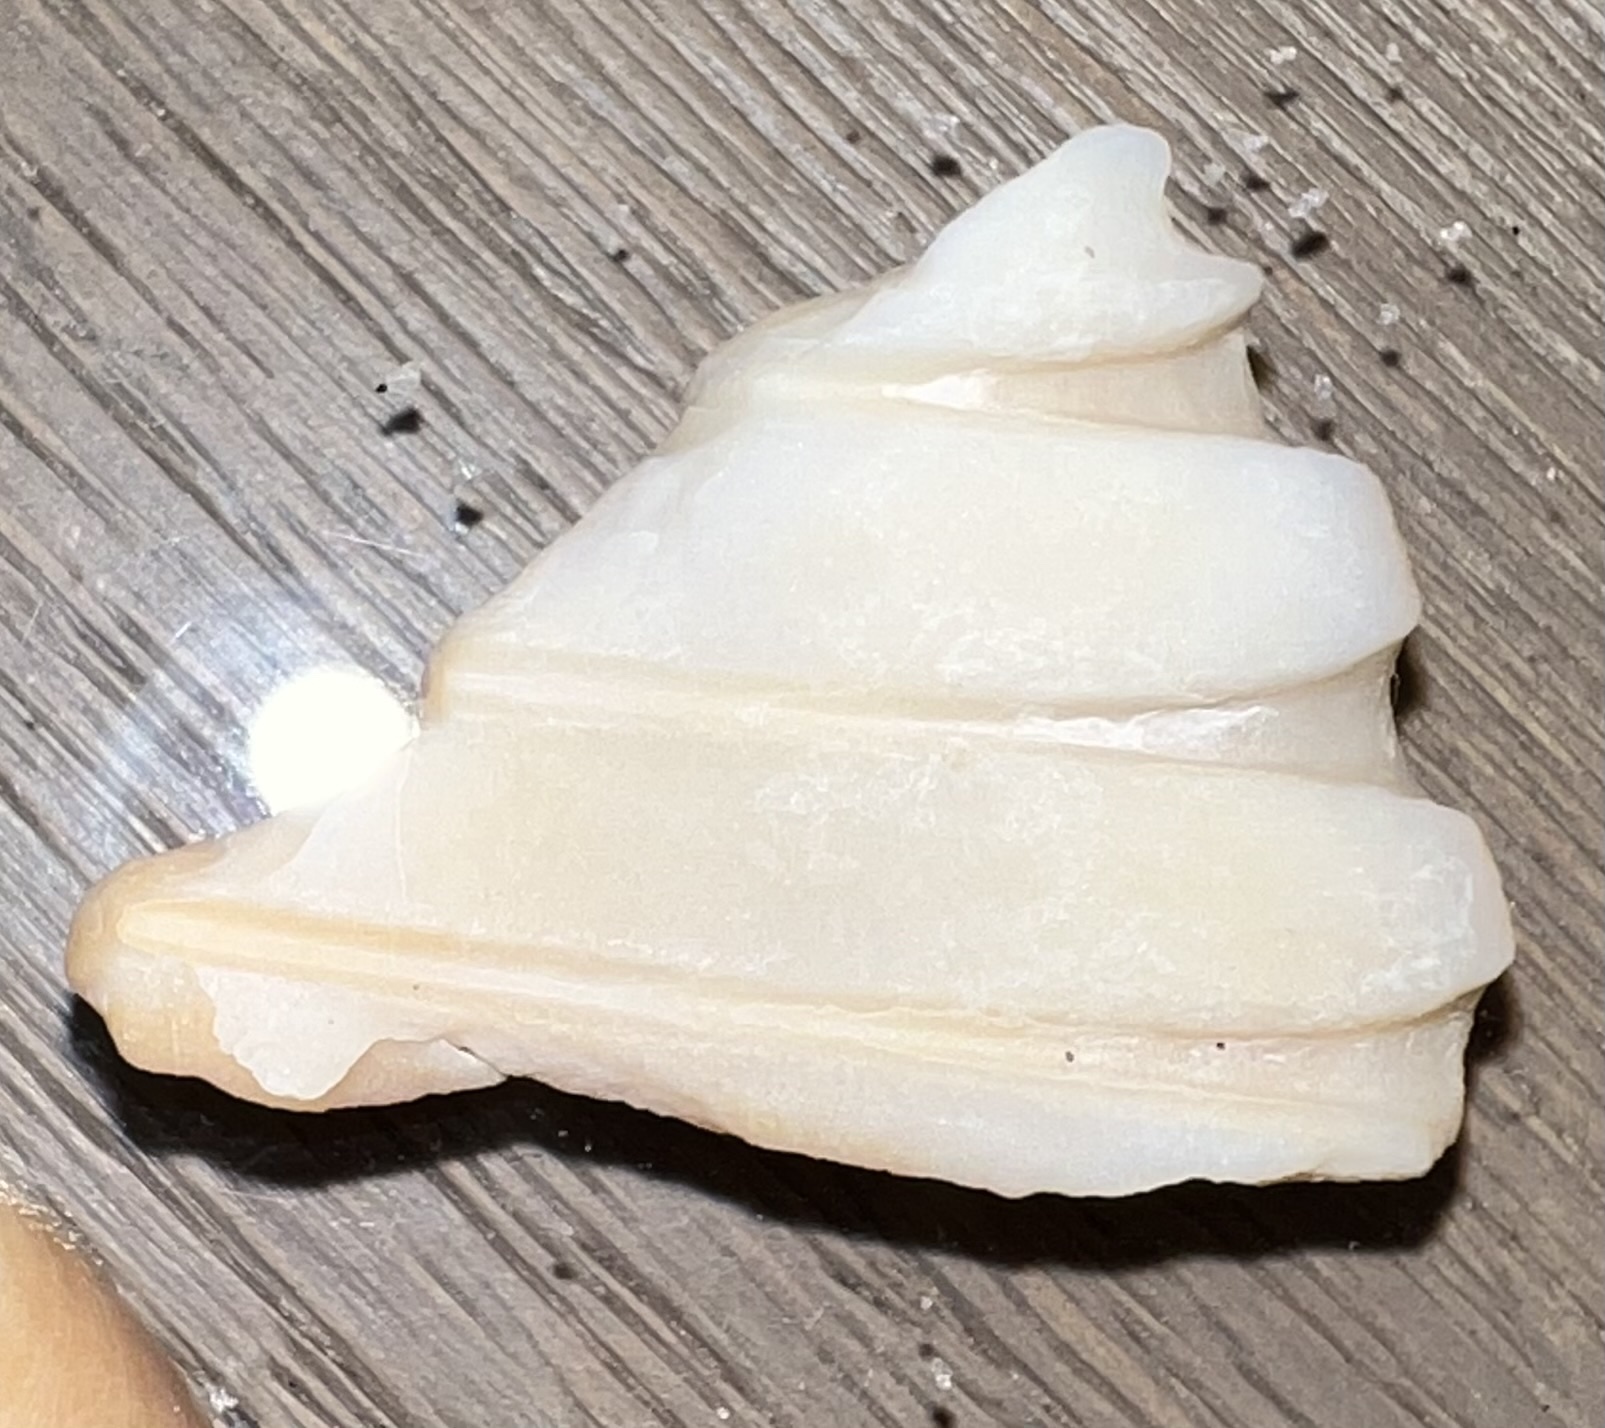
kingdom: Animalia
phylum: Mollusca
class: Bivalvia
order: Cardiida
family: Cardiidae
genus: Dinocardium
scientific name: Dinocardium robustum
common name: Atlantic giant cockle
